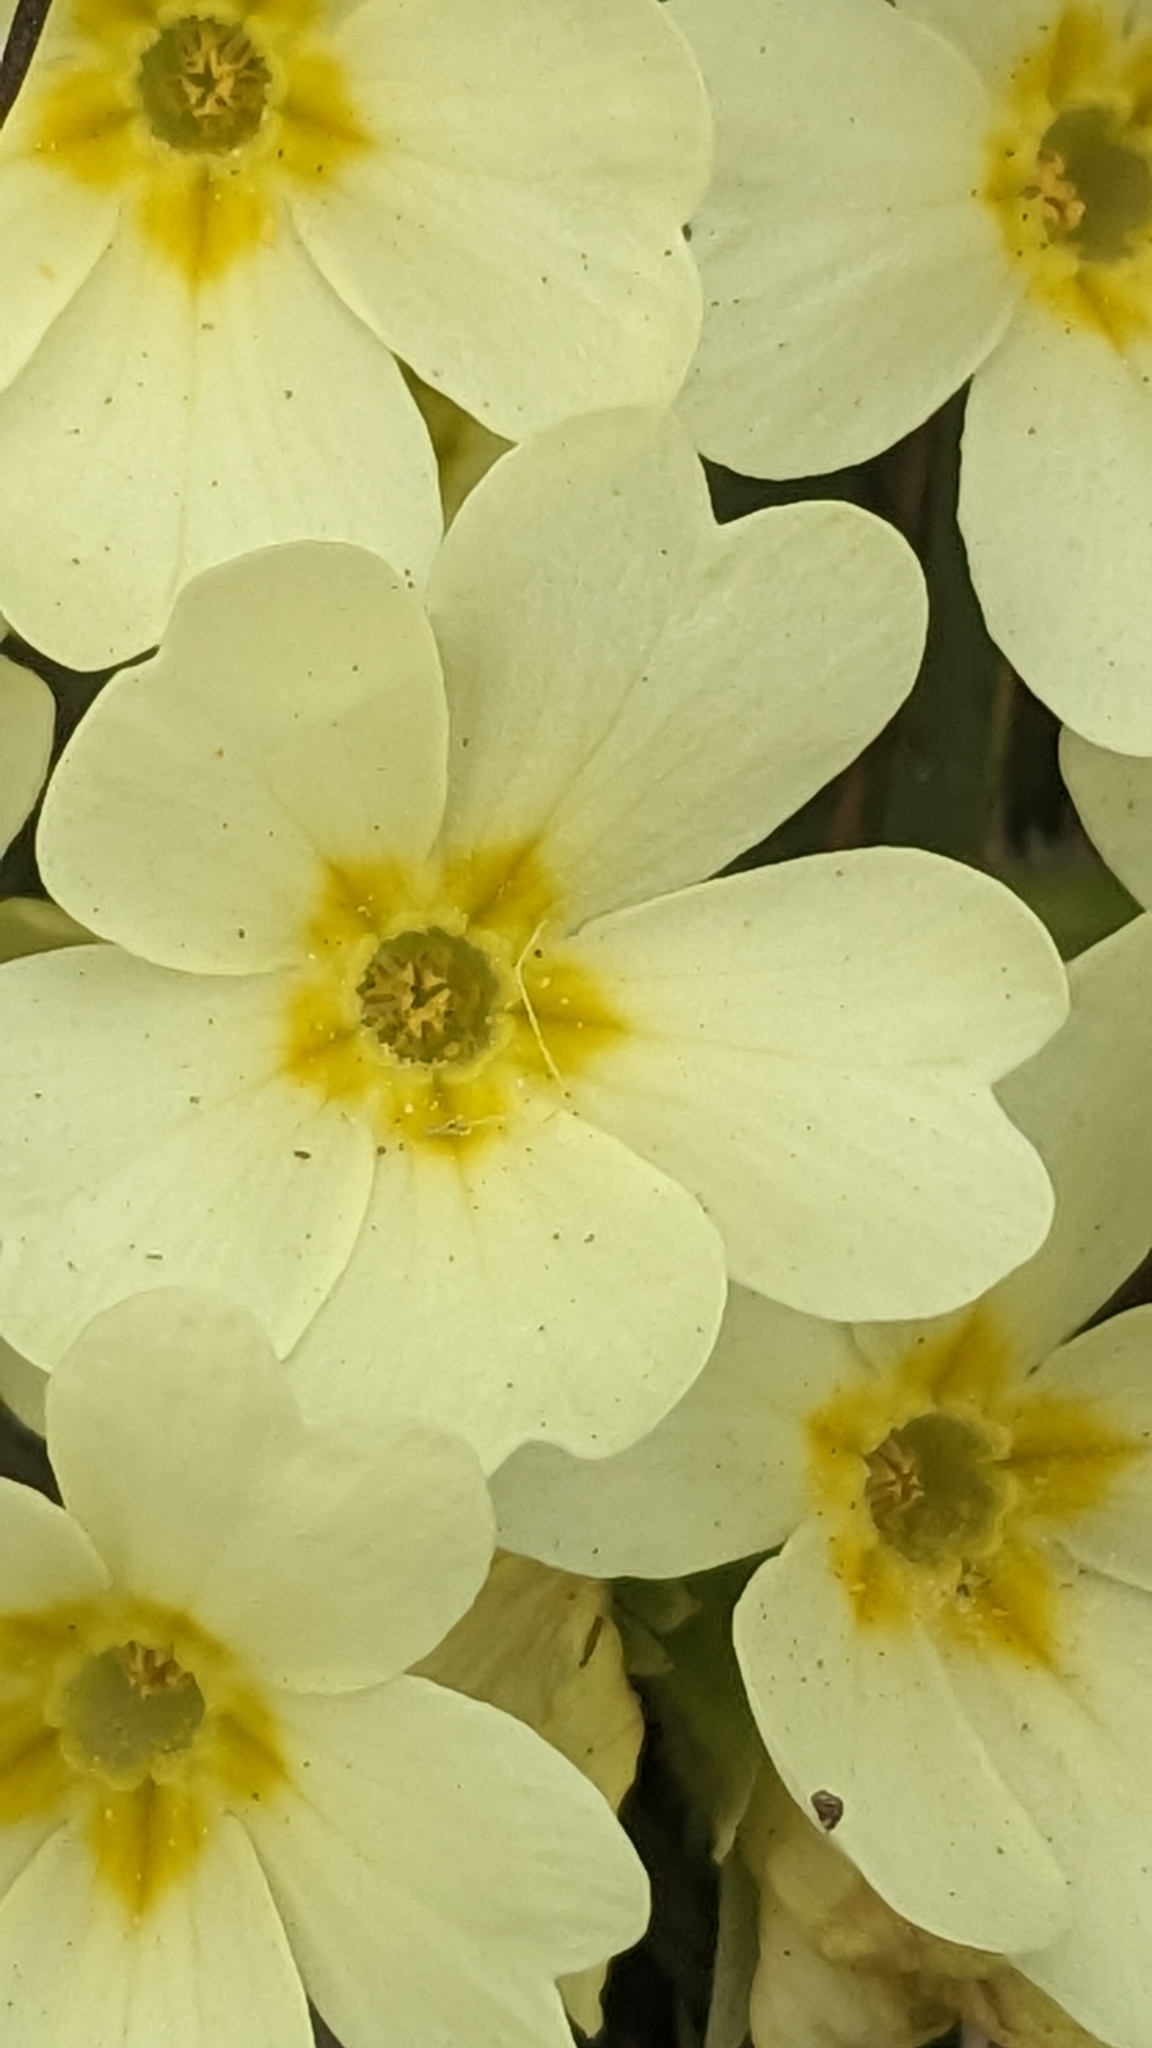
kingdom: Plantae
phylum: Tracheophyta
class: Magnoliopsida
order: Ericales
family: Primulaceae
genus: Primula
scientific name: Primula vulgaris
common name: Primrose
